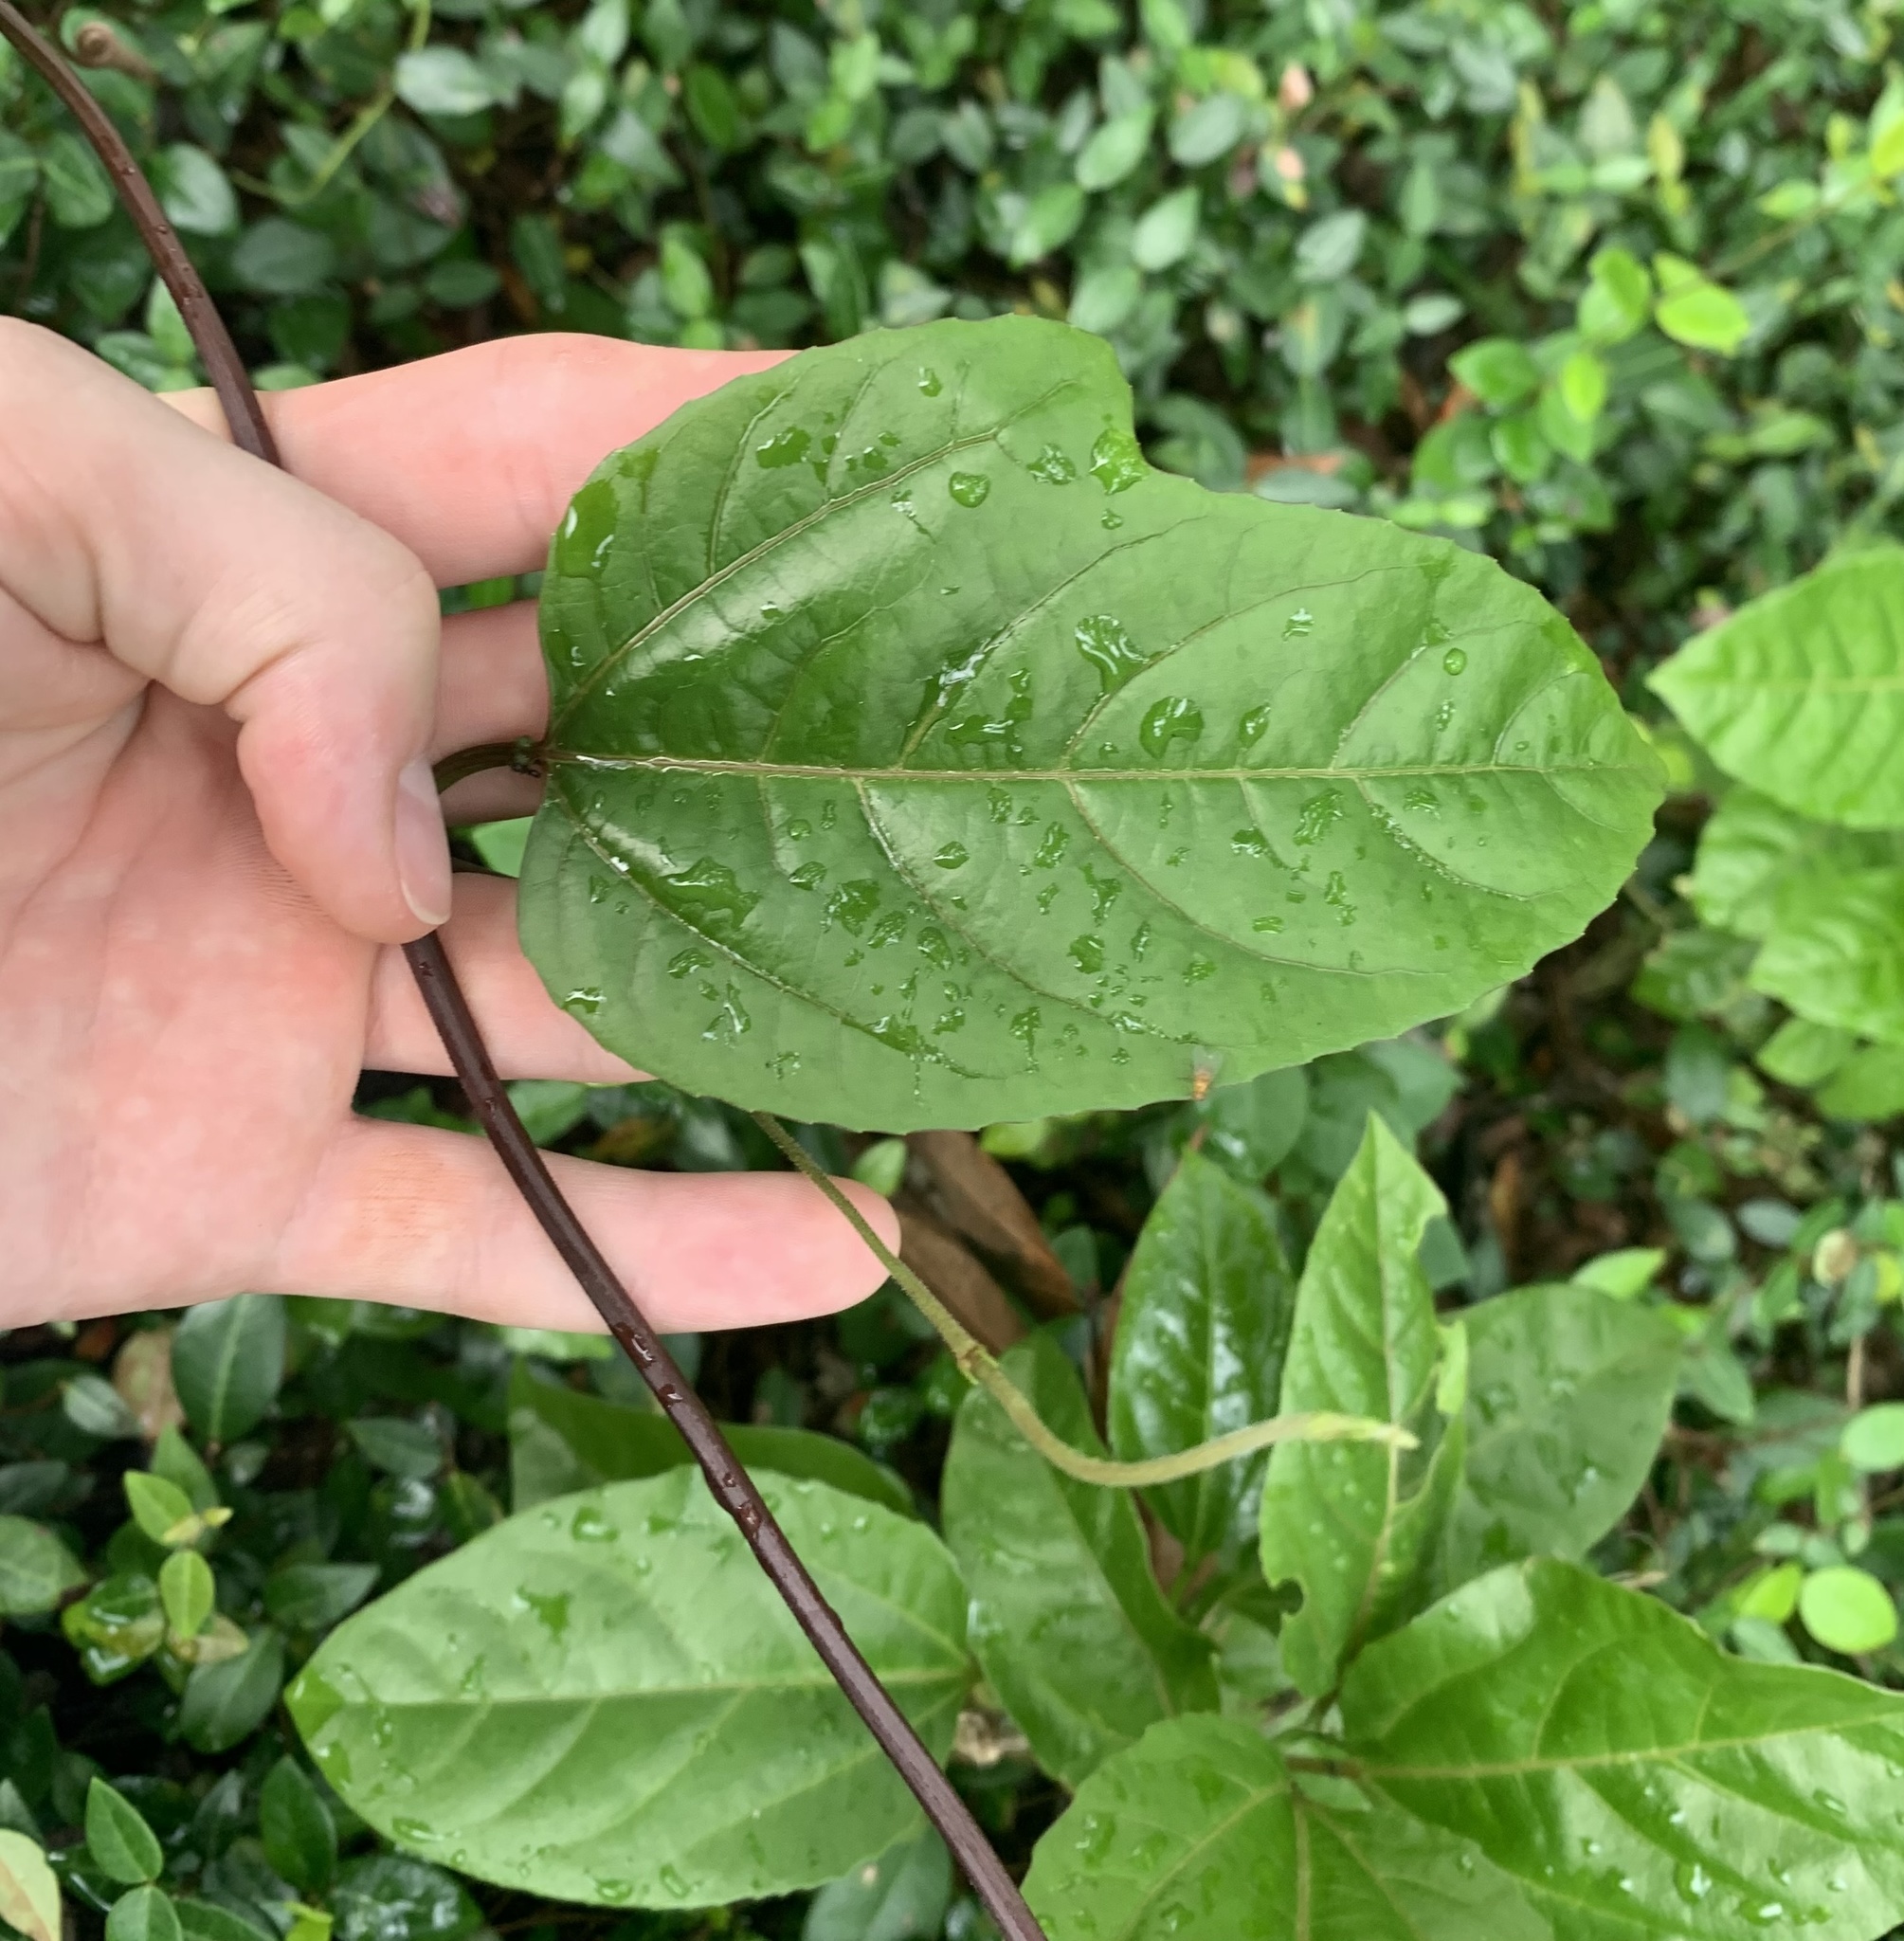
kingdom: Plantae
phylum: Tracheophyta
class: Magnoliopsida
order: Malpighiales
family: Passifloraceae
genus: Passiflora
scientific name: Passiflora pallida
